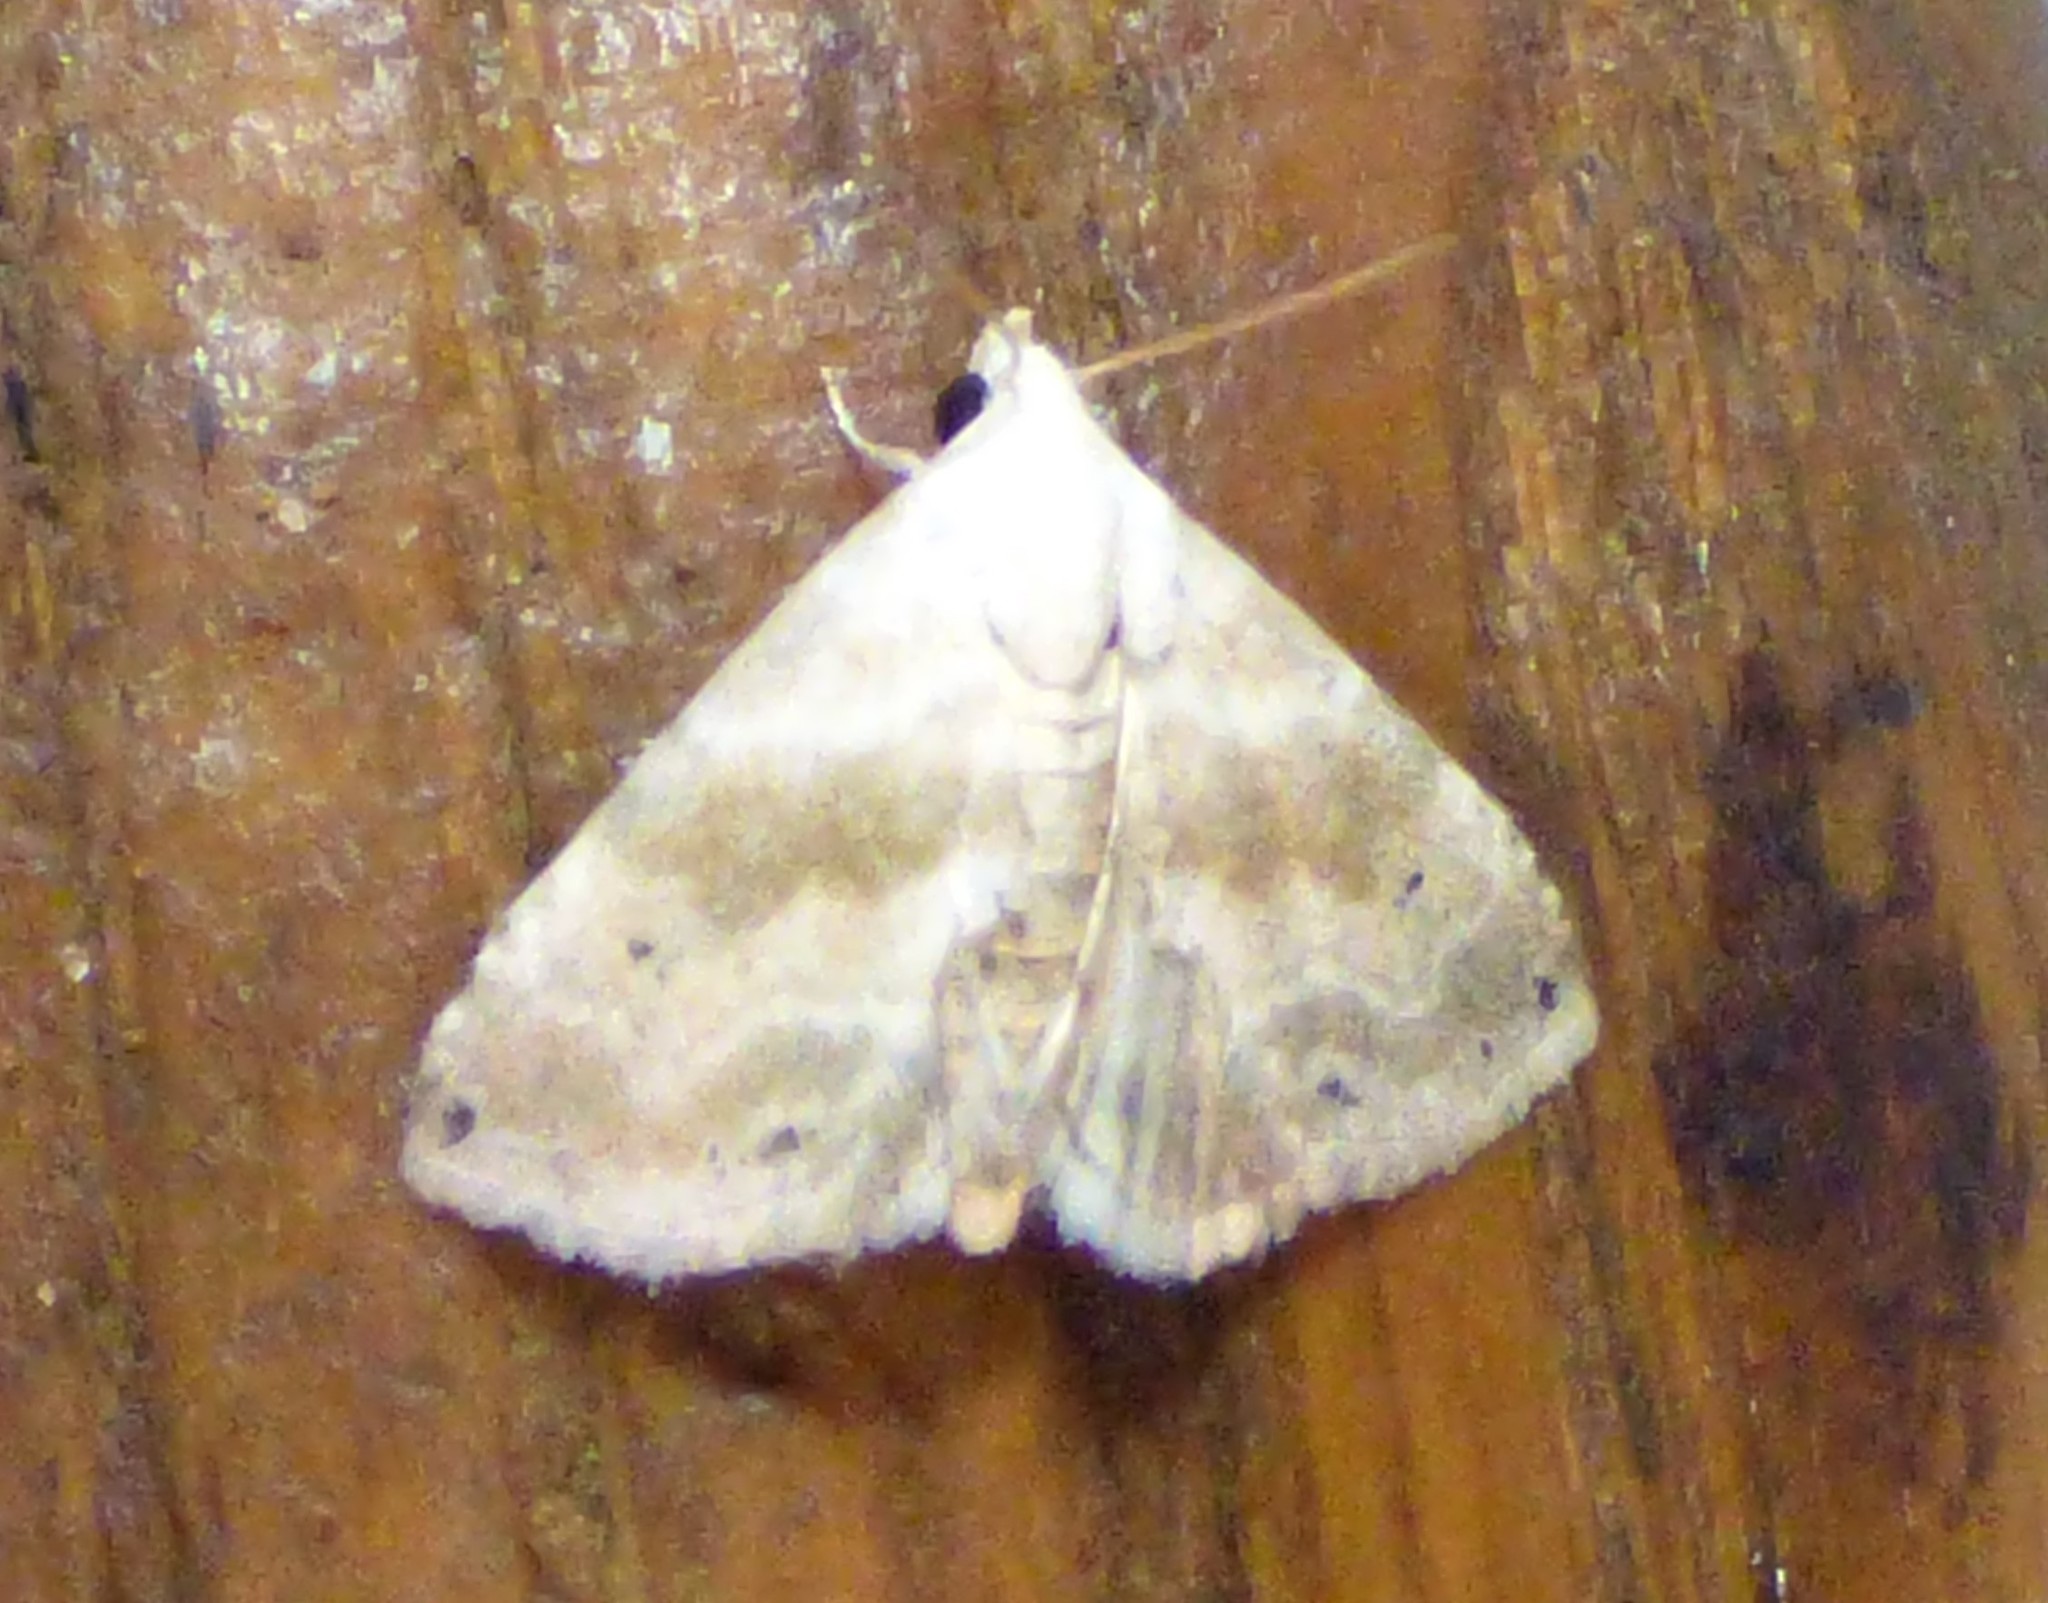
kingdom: Animalia
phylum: Arthropoda
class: Insecta
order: Lepidoptera
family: Noctuidae
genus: Eublemma
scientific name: Eublemma minima
